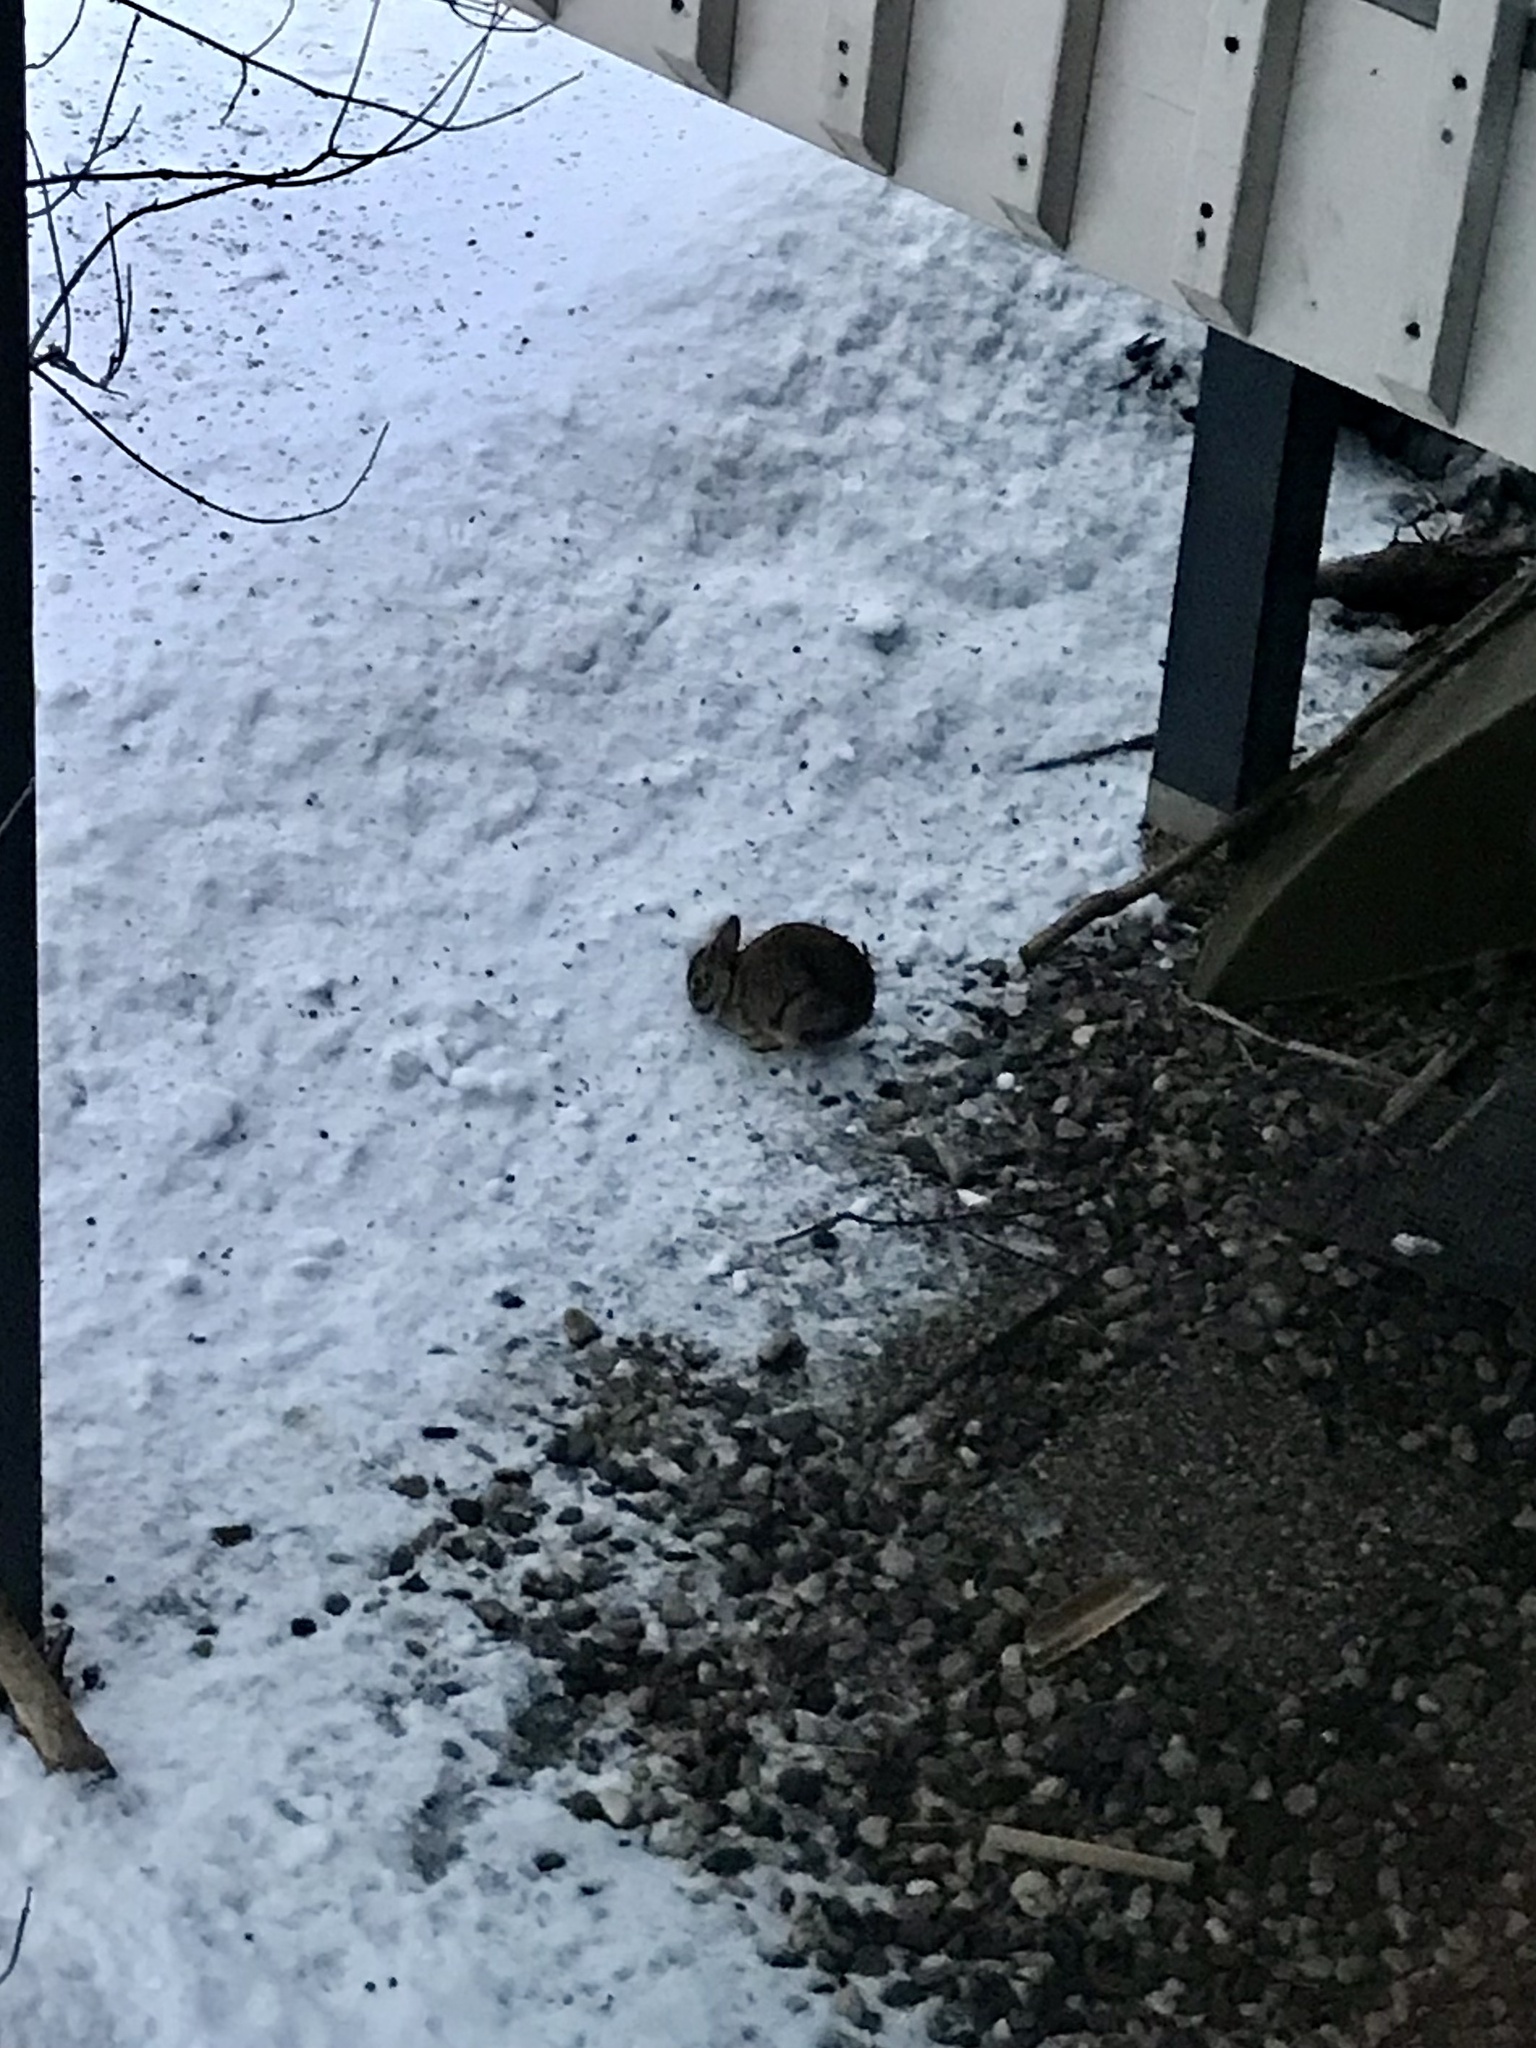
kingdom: Animalia
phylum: Chordata
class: Mammalia
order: Lagomorpha
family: Leporidae
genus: Sylvilagus
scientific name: Sylvilagus floridanus
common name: Eastern cottontail
